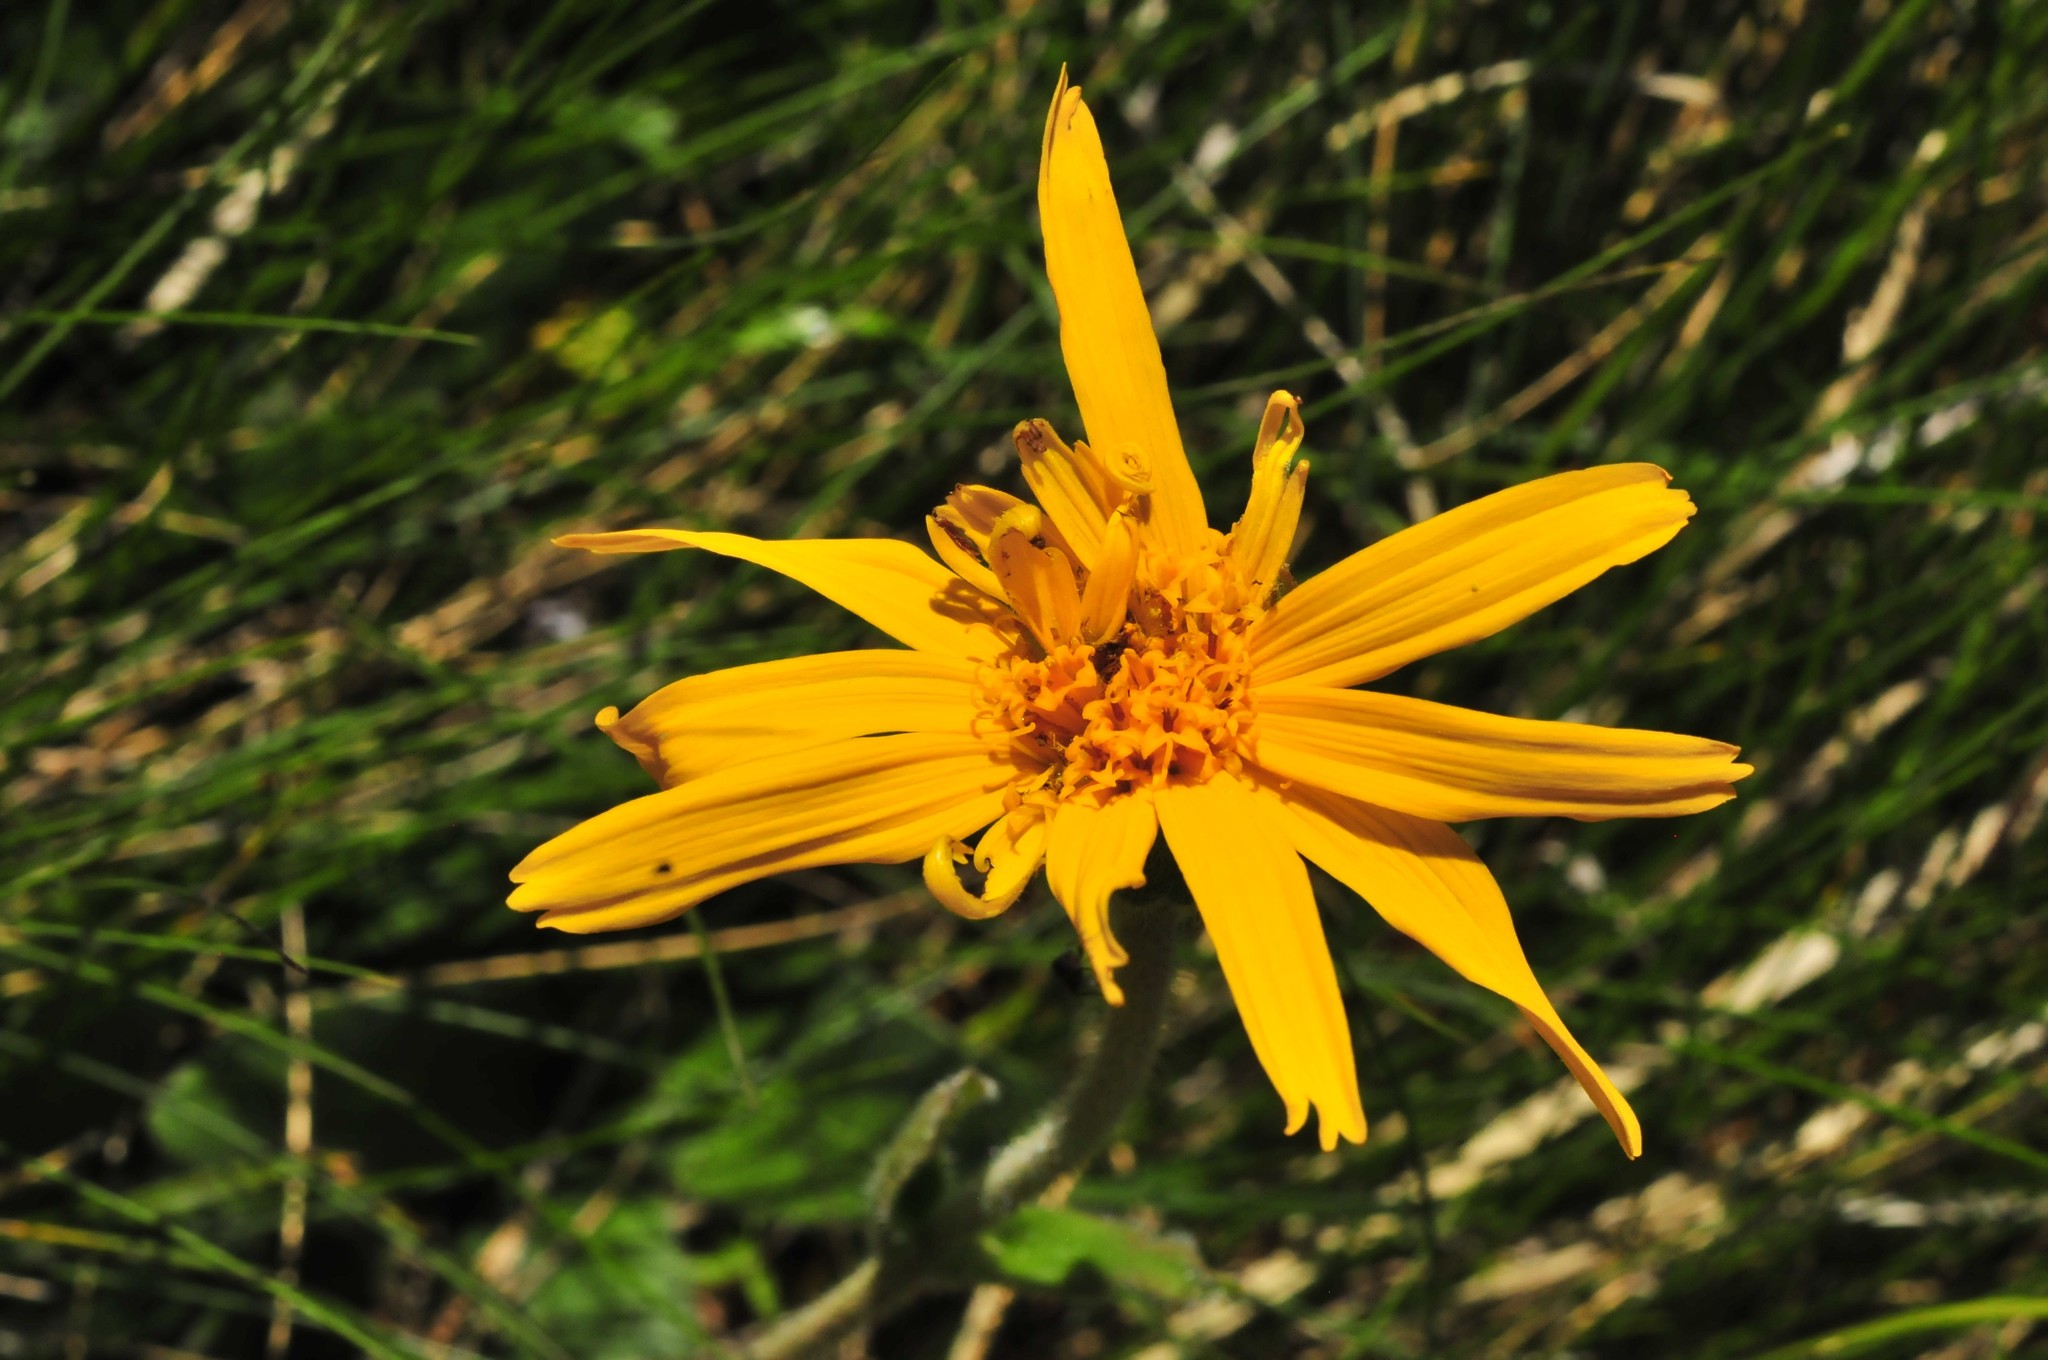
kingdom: Plantae
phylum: Tracheophyta
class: Magnoliopsida
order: Asterales
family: Asteraceae
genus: Arnica
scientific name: Arnica montana
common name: Leopard's bane
